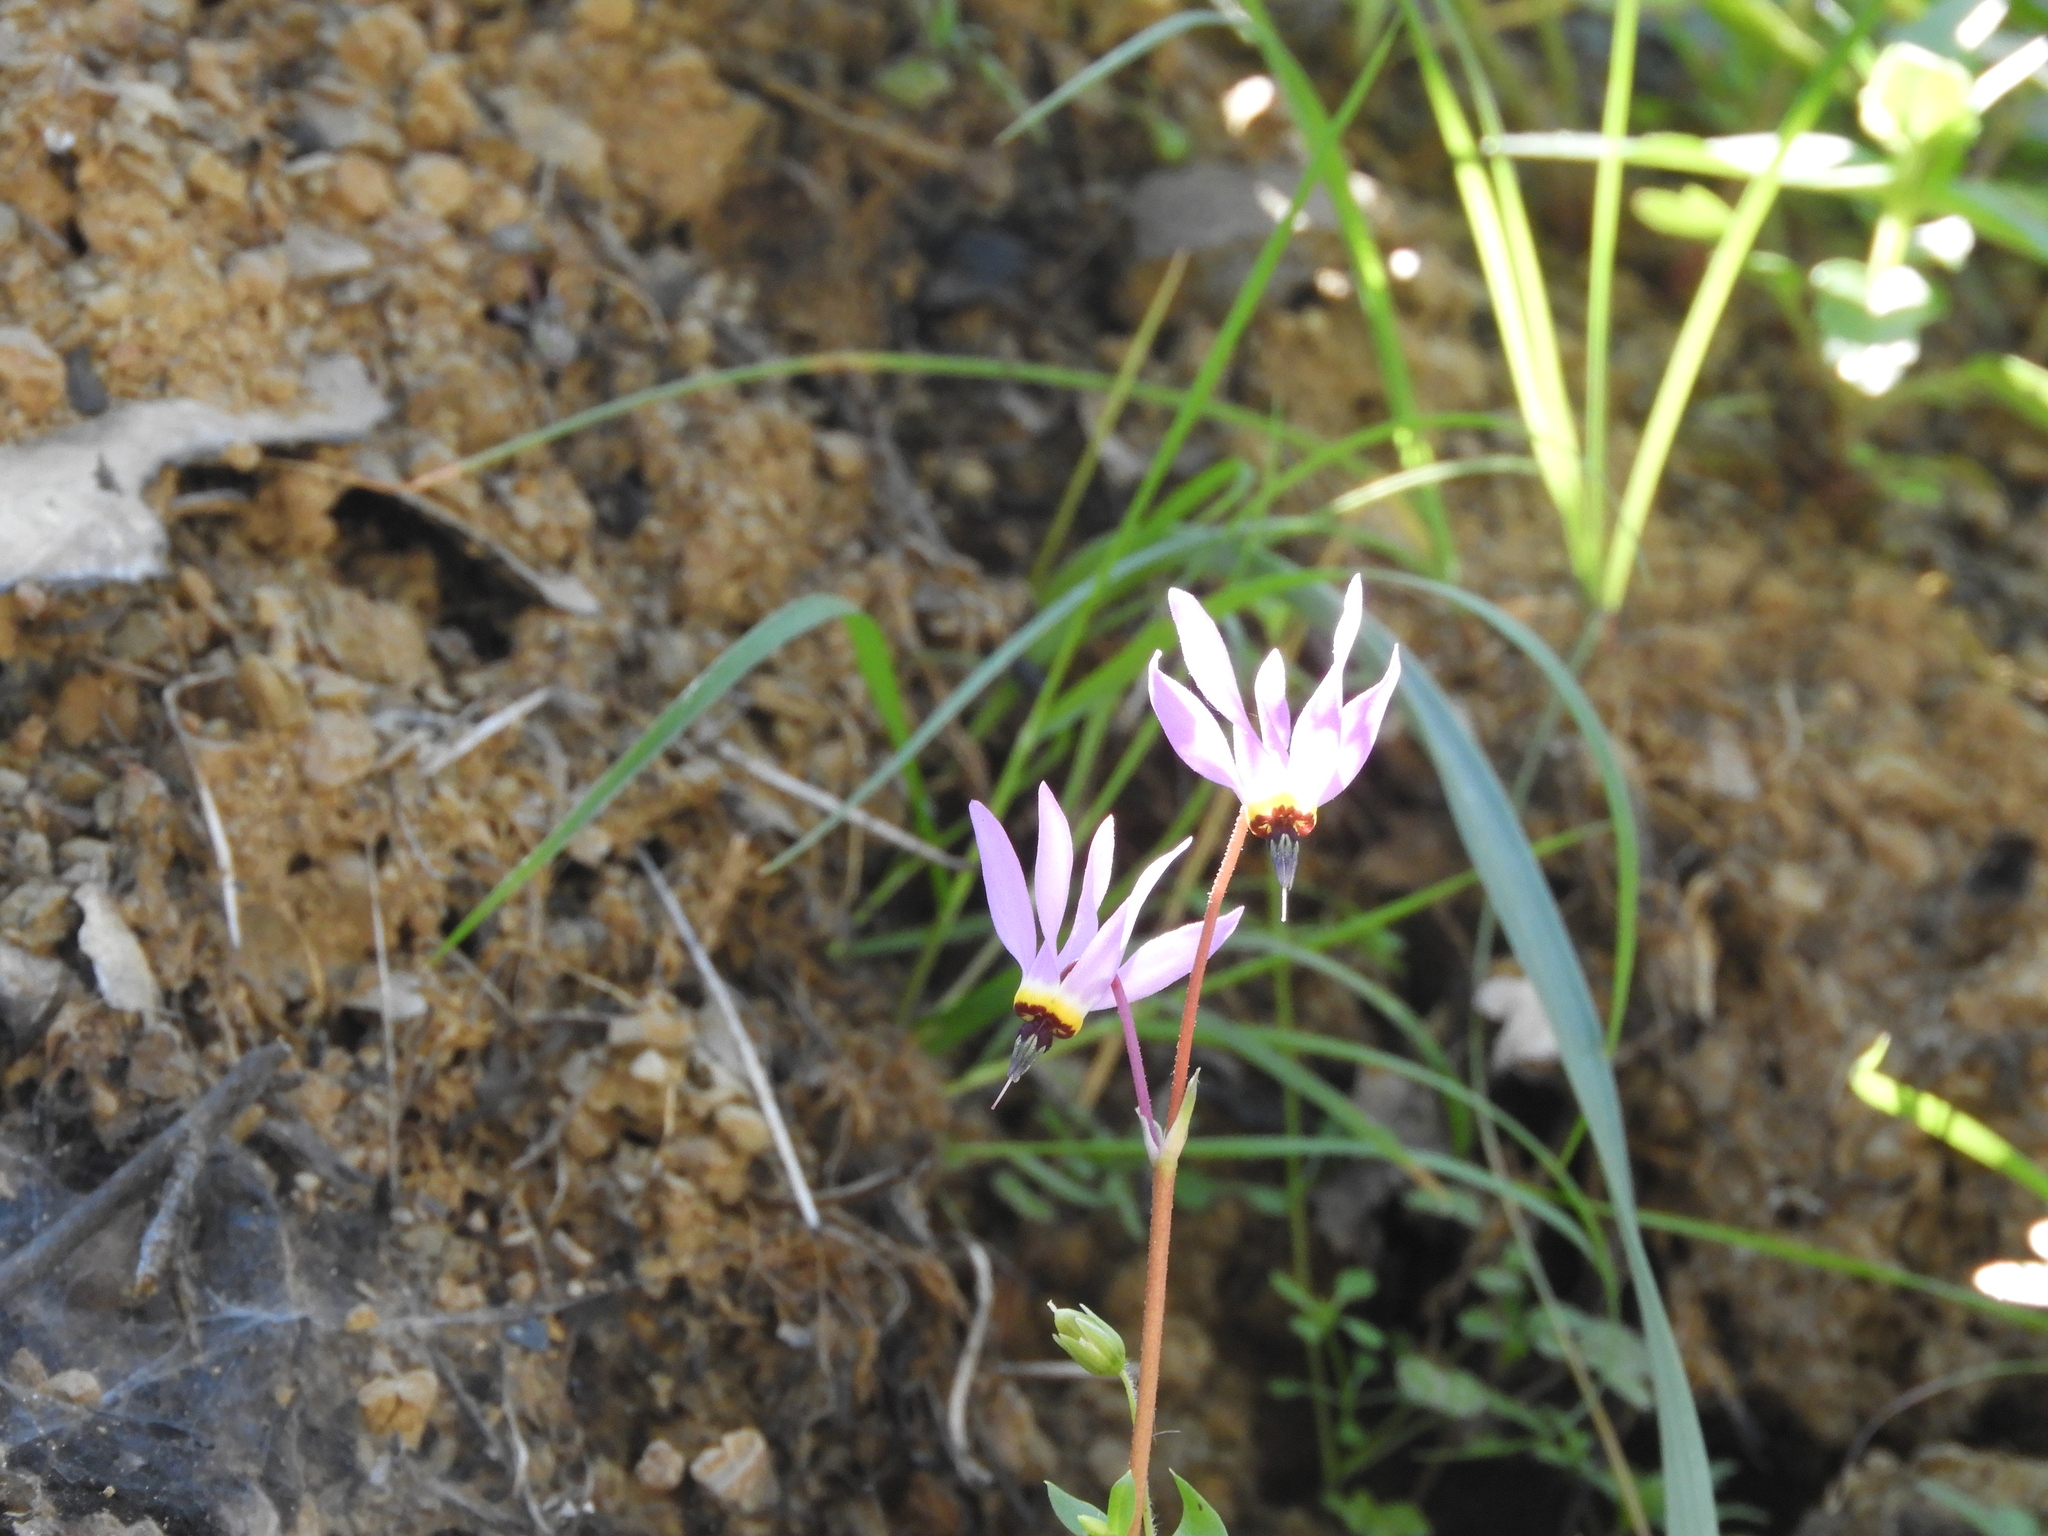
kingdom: Plantae
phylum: Tracheophyta
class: Magnoliopsida
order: Ericales
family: Primulaceae
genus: Dodecatheon
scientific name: Dodecatheon hendersonii
